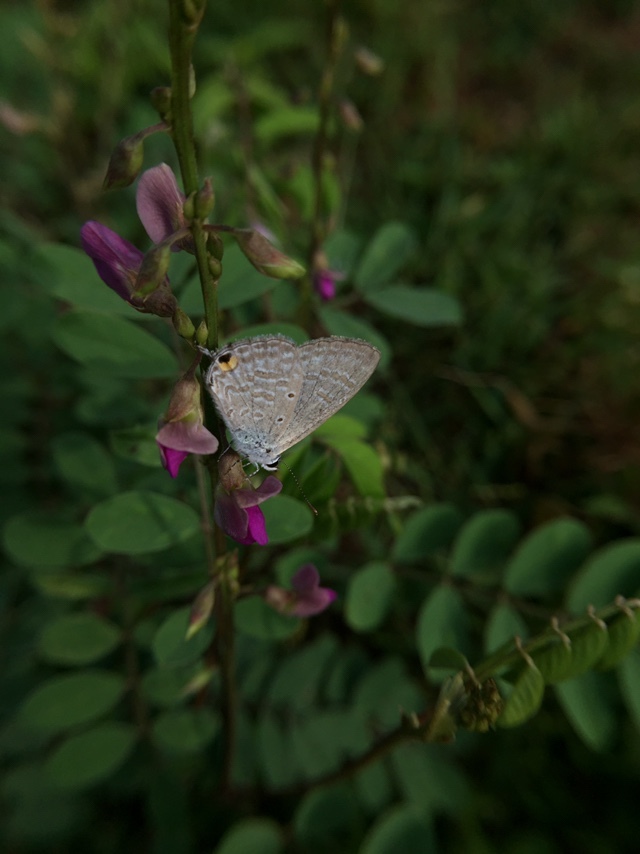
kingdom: Animalia
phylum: Arthropoda
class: Insecta
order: Lepidoptera
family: Lycaenidae
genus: Catochrysops
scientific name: Catochrysops strabo
